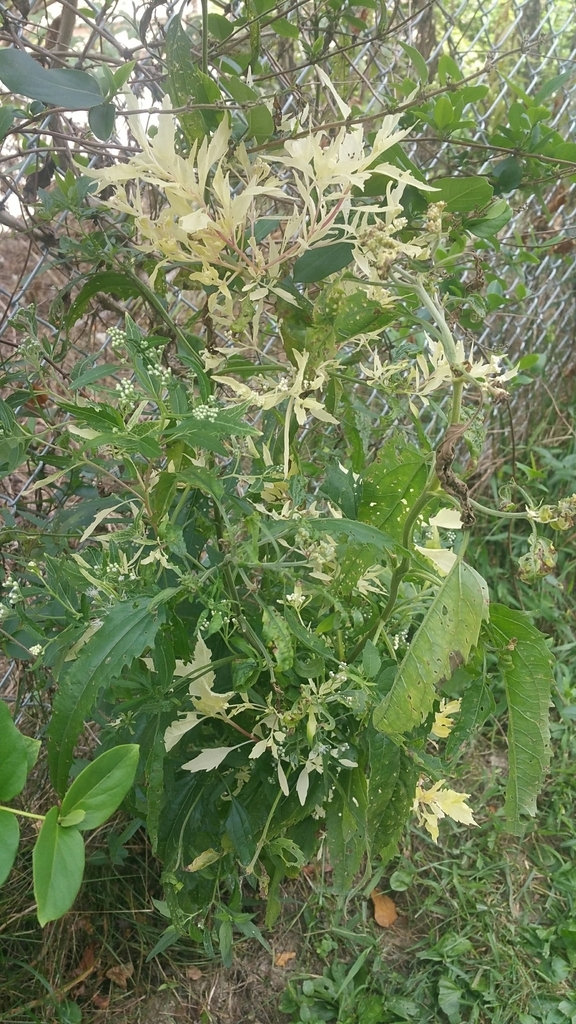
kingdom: Plantae
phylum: Tracheophyta
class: Magnoliopsida
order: Asterales
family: Asteraceae
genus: Eupatorium
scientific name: Eupatorium serotinum
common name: Late boneset
